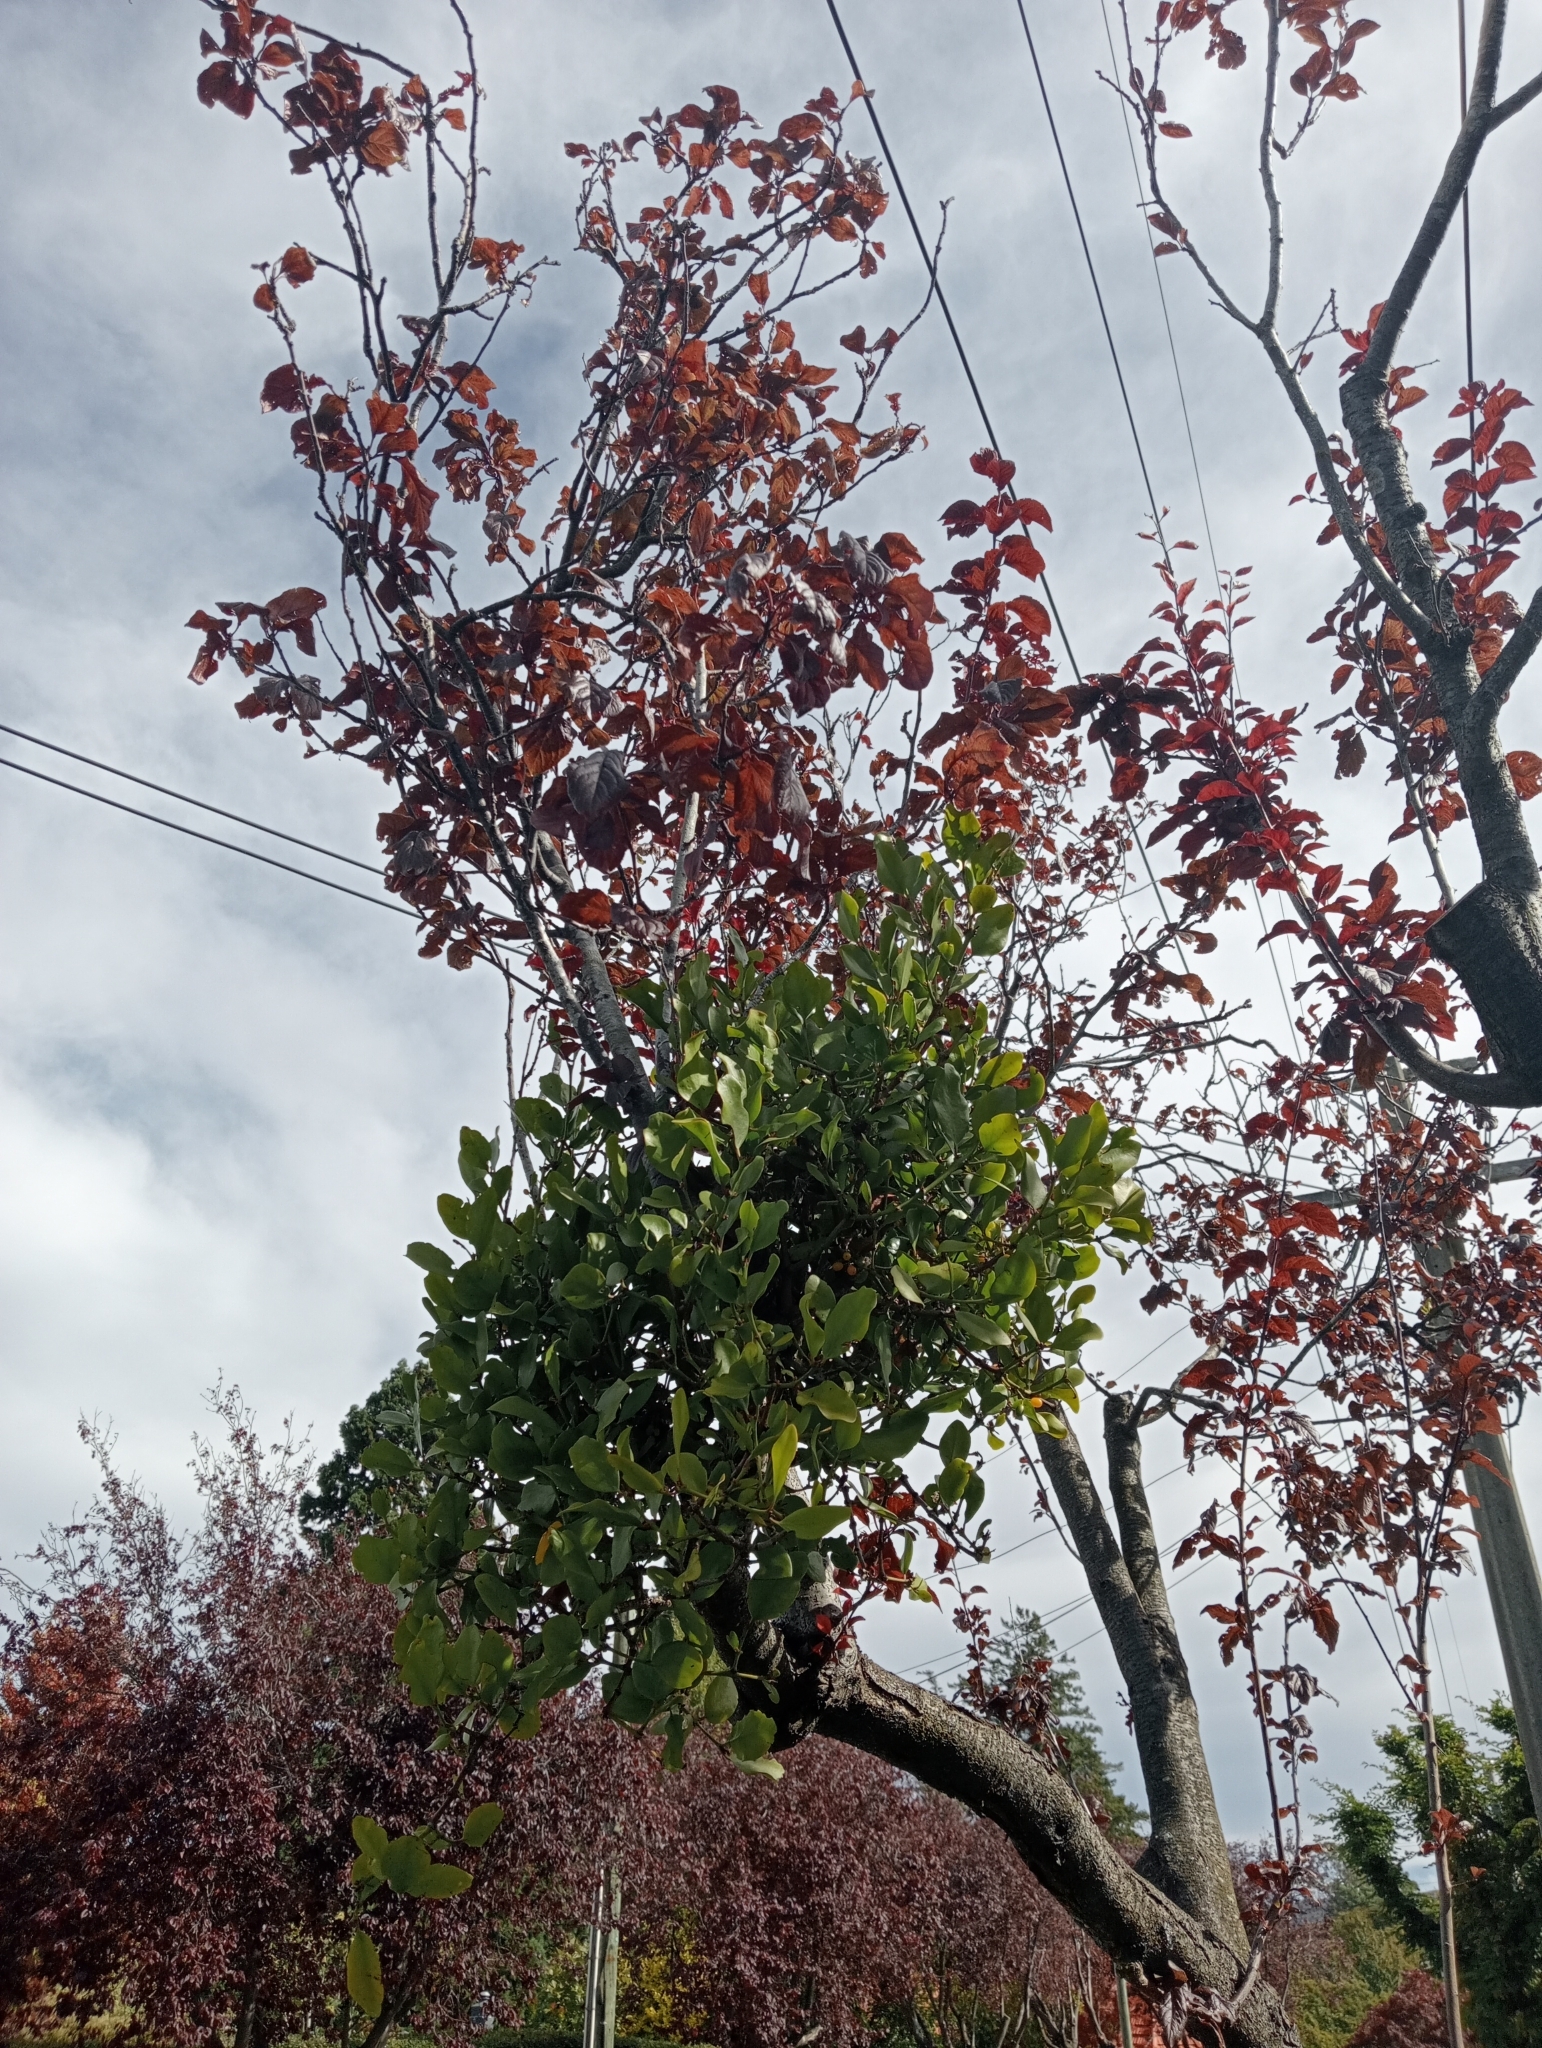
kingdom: Plantae
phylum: Tracheophyta
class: Magnoliopsida
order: Santalales
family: Loranthaceae
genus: Ileostylus
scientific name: Ileostylus micranthus
